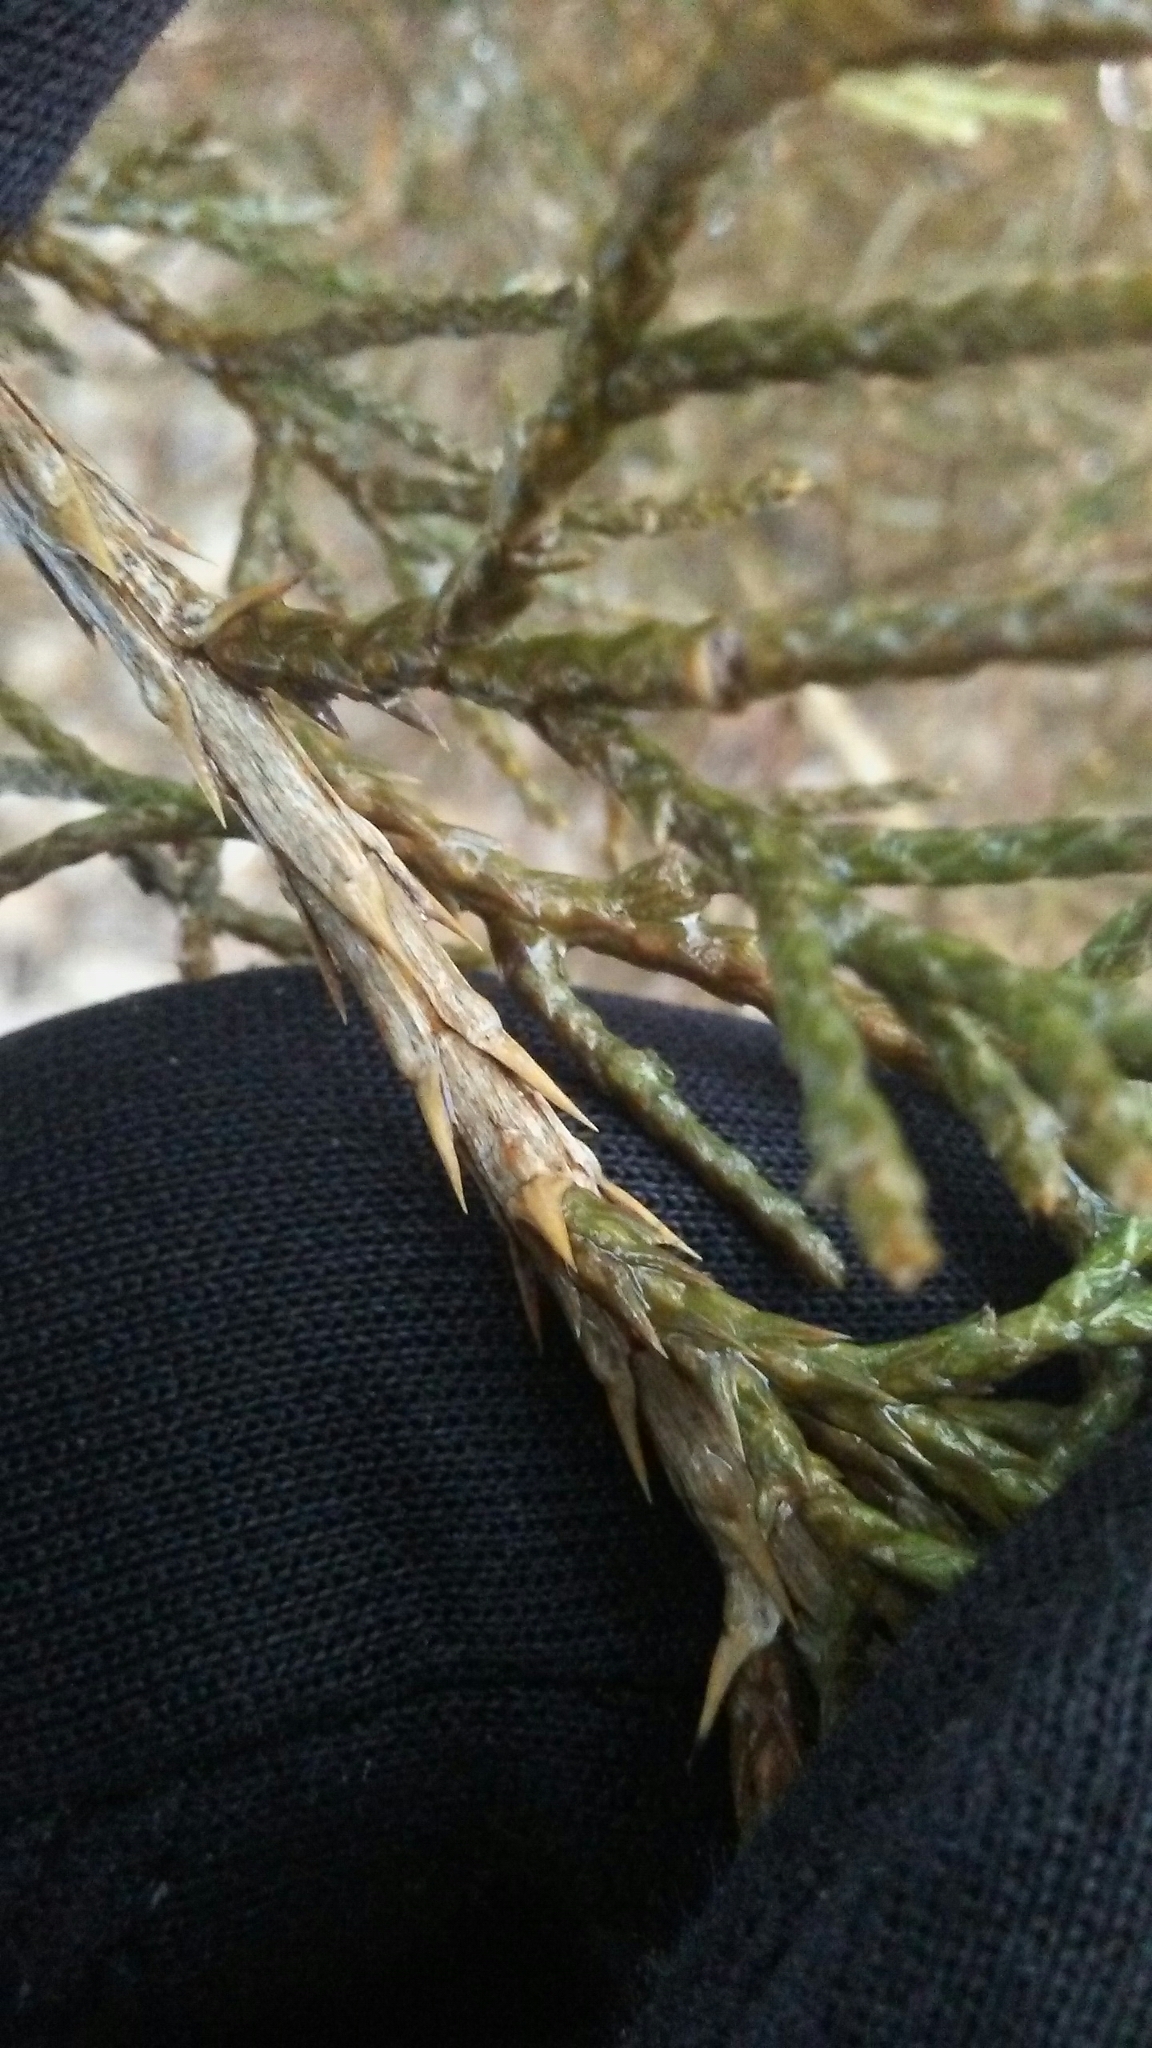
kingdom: Plantae
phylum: Tracheophyta
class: Pinopsida
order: Pinales
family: Cupressaceae
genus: Juniperus
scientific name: Juniperus virginiana
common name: Red juniper
